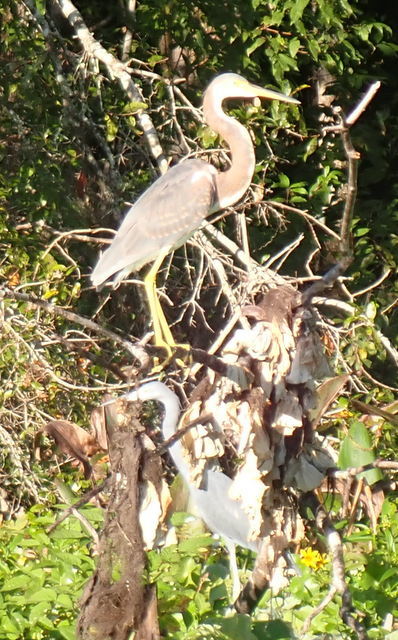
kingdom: Animalia
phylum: Chordata
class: Aves
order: Pelecaniformes
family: Ardeidae
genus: Egretta
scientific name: Egretta tricolor
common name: Tricolored heron
